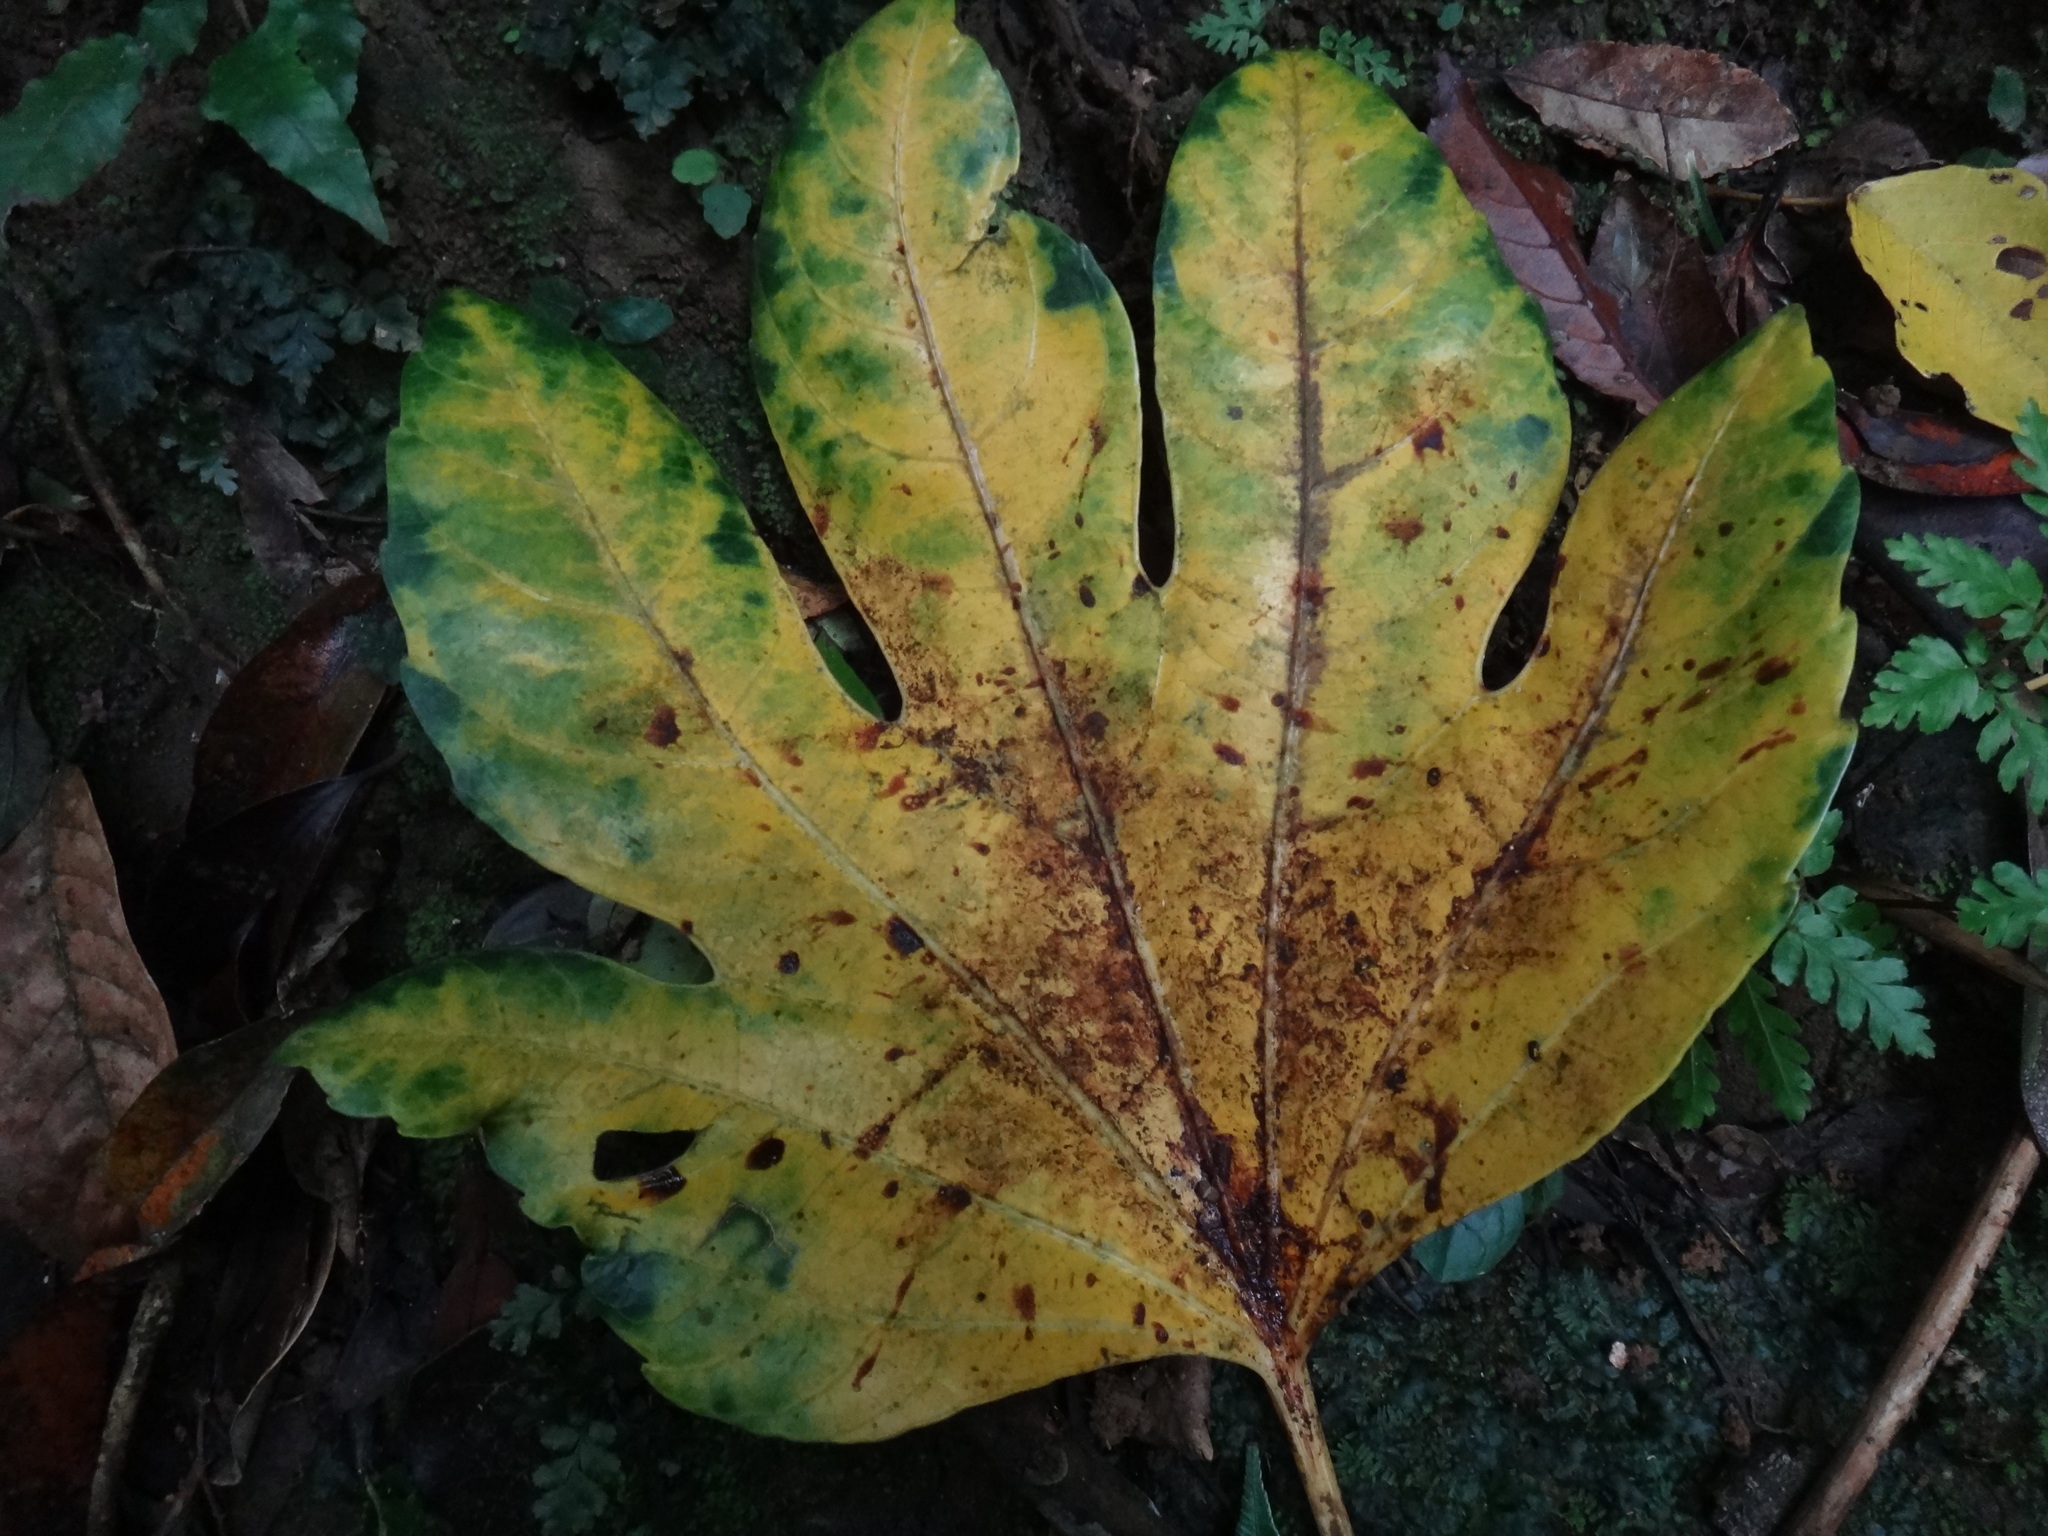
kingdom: Plantae
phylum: Tracheophyta
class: Magnoliopsida
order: Apiales
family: Araliaceae
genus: Osmoxylon
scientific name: Osmoxylon pectinatum
